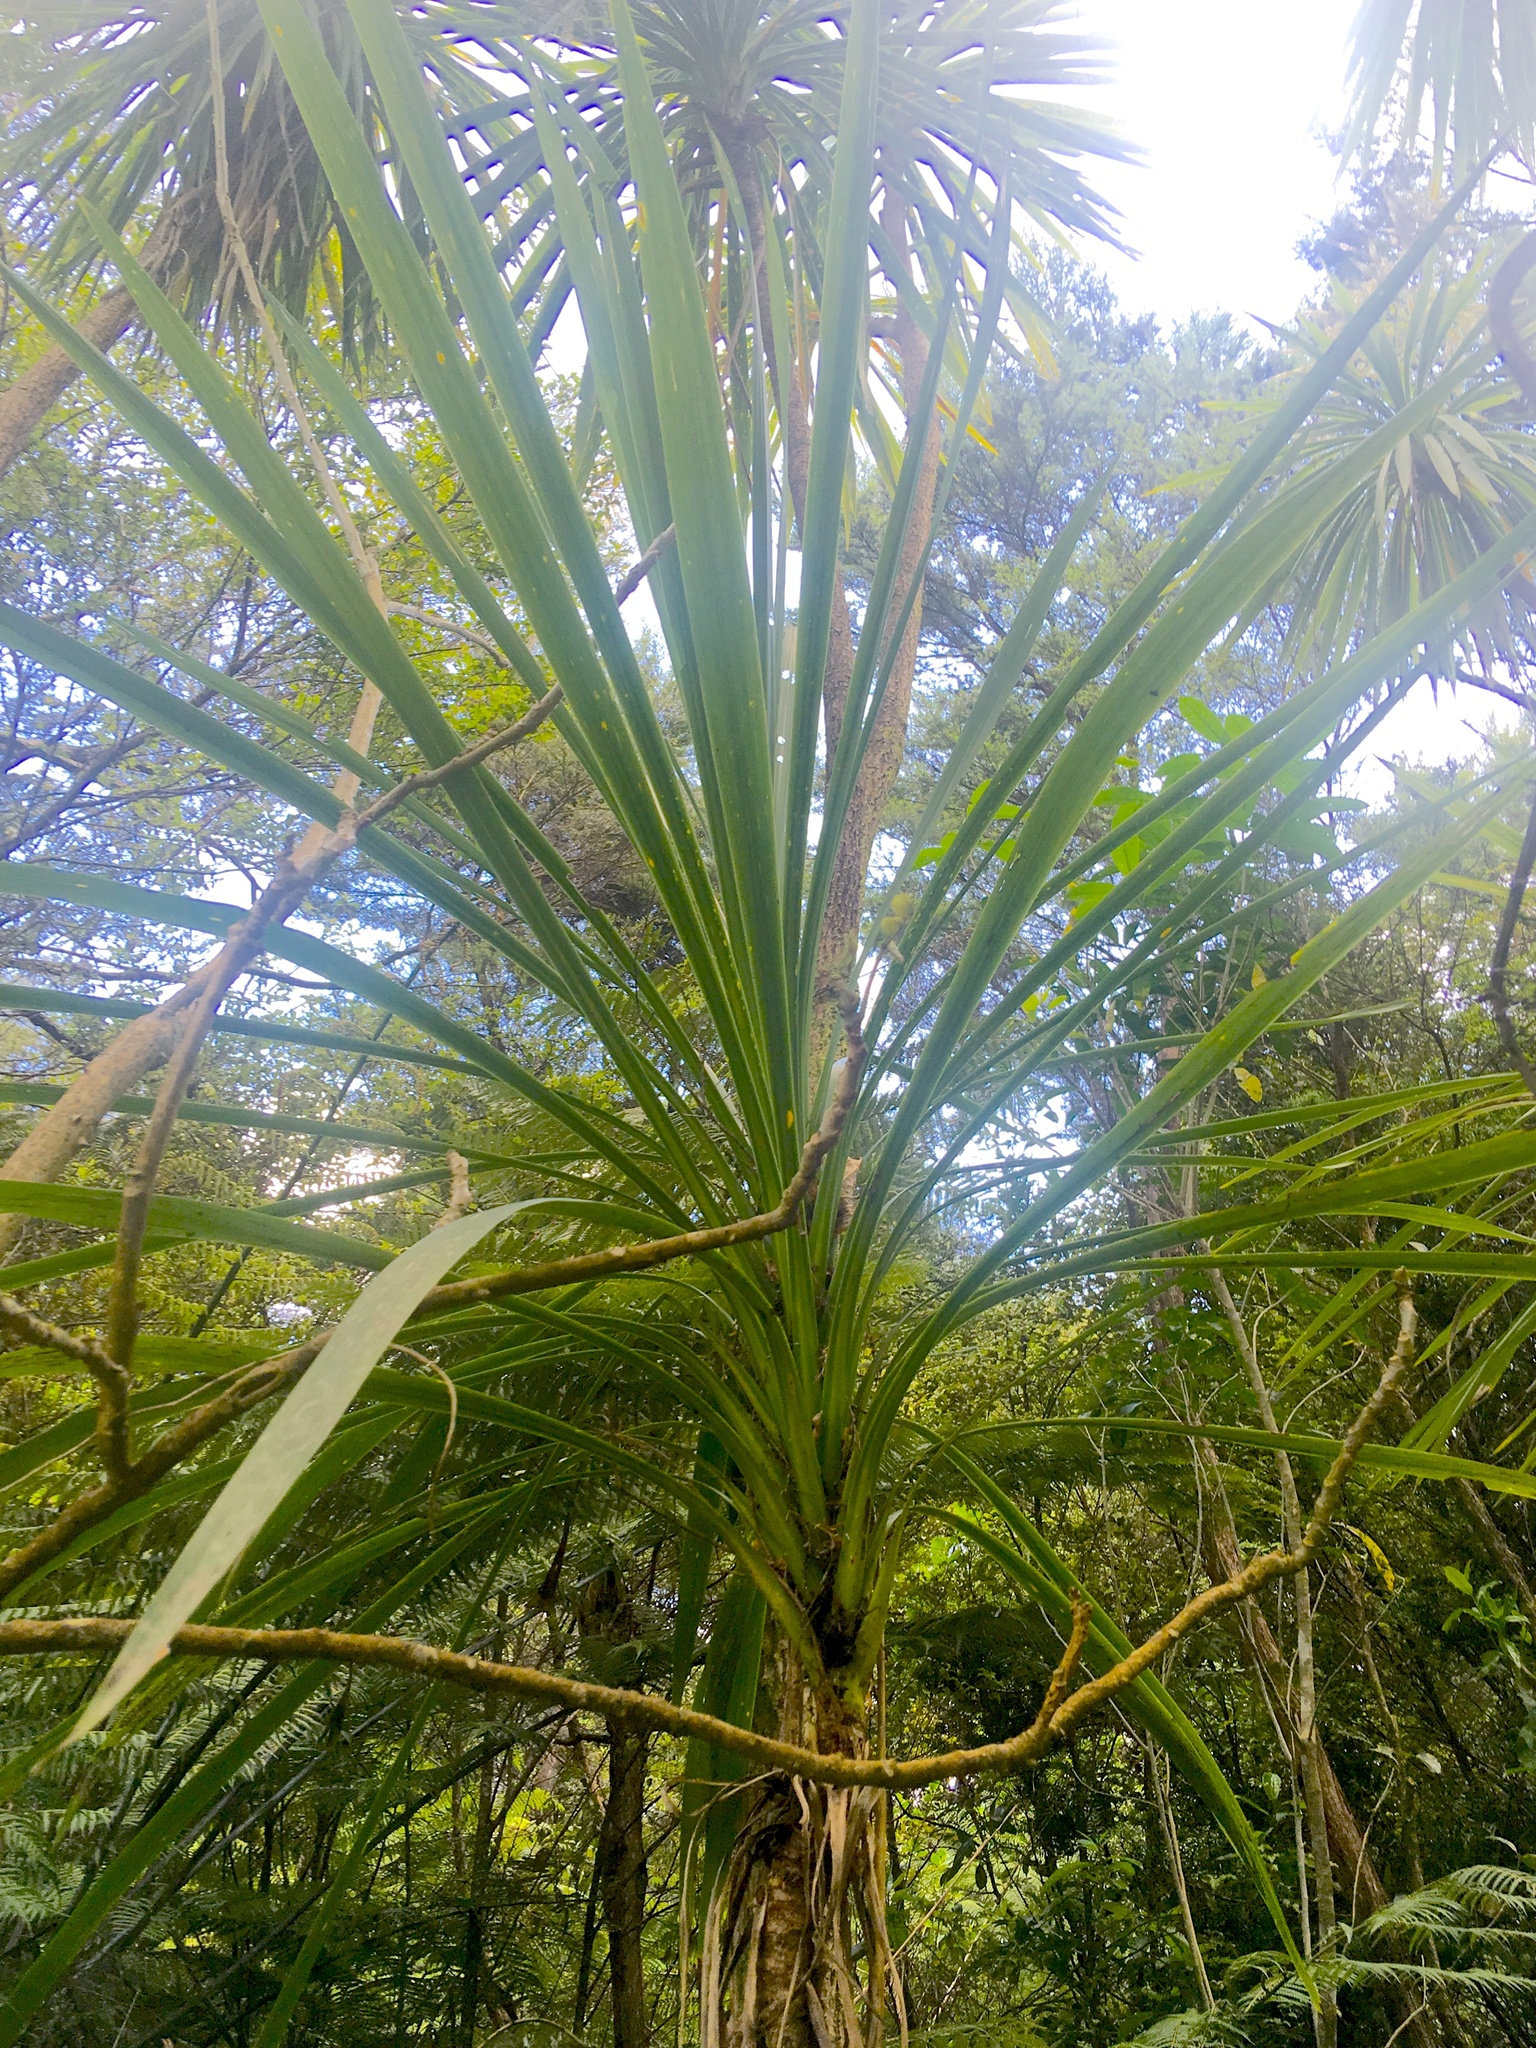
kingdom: Plantae
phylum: Tracheophyta
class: Liliopsida
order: Asparagales
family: Asparagaceae
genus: Cordyline
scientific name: Cordyline australis
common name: Cabbage-palm
